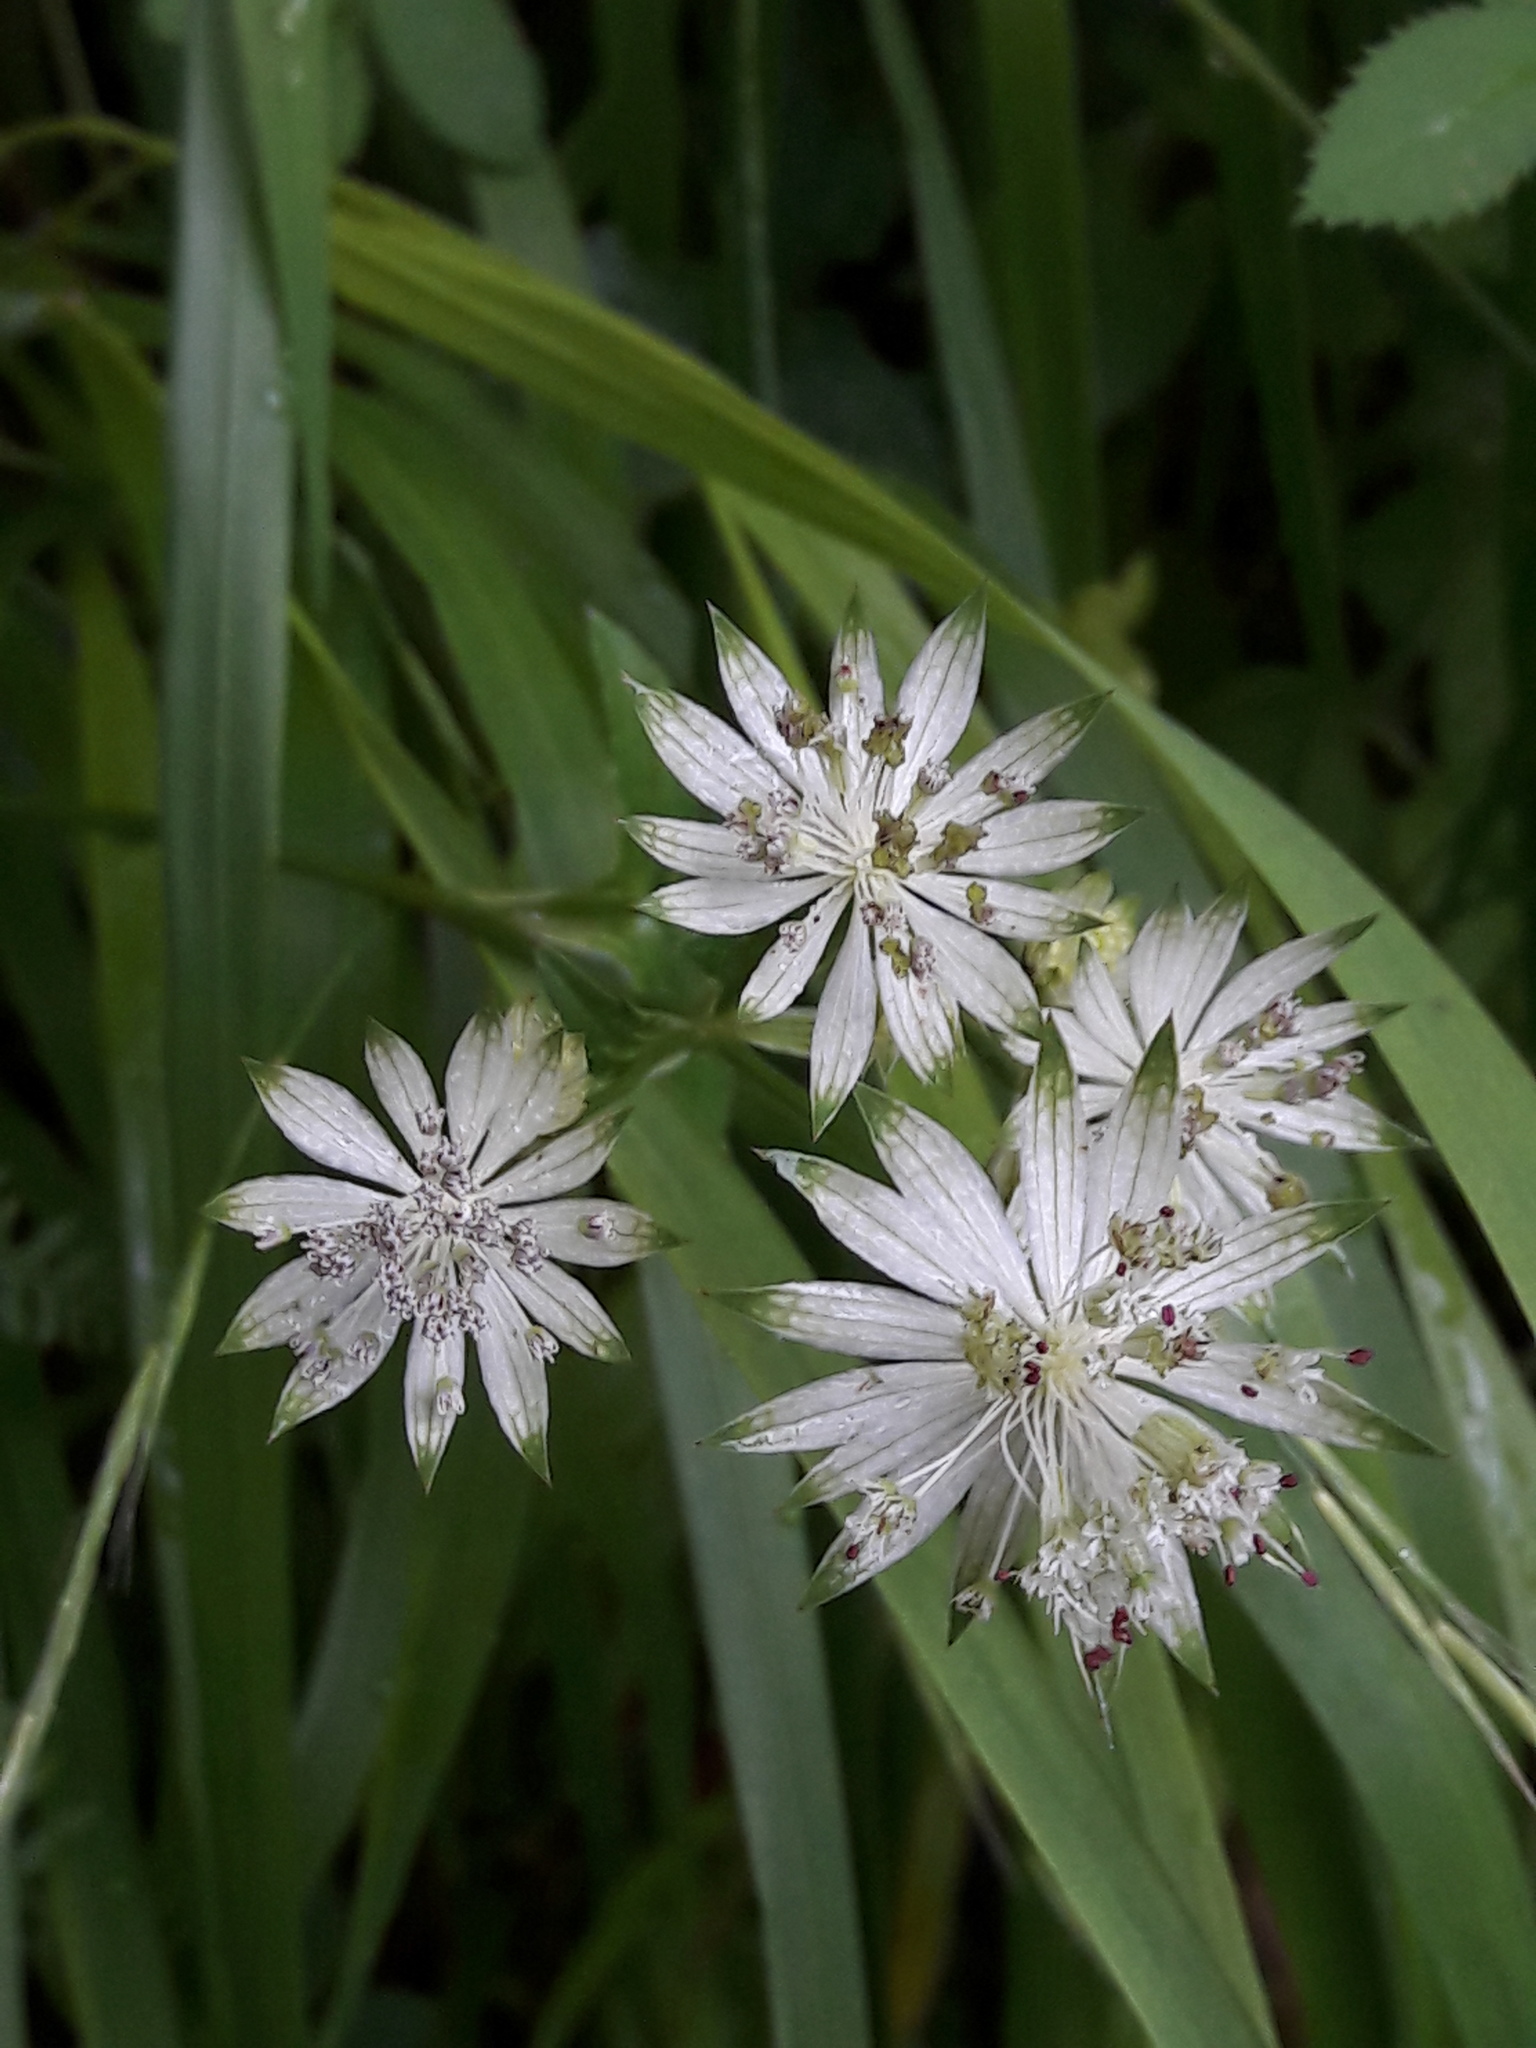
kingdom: Plantae
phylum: Tracheophyta
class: Magnoliopsida
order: Apiales
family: Apiaceae
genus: Astrantia
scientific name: Astrantia major
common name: Greater masterwort
